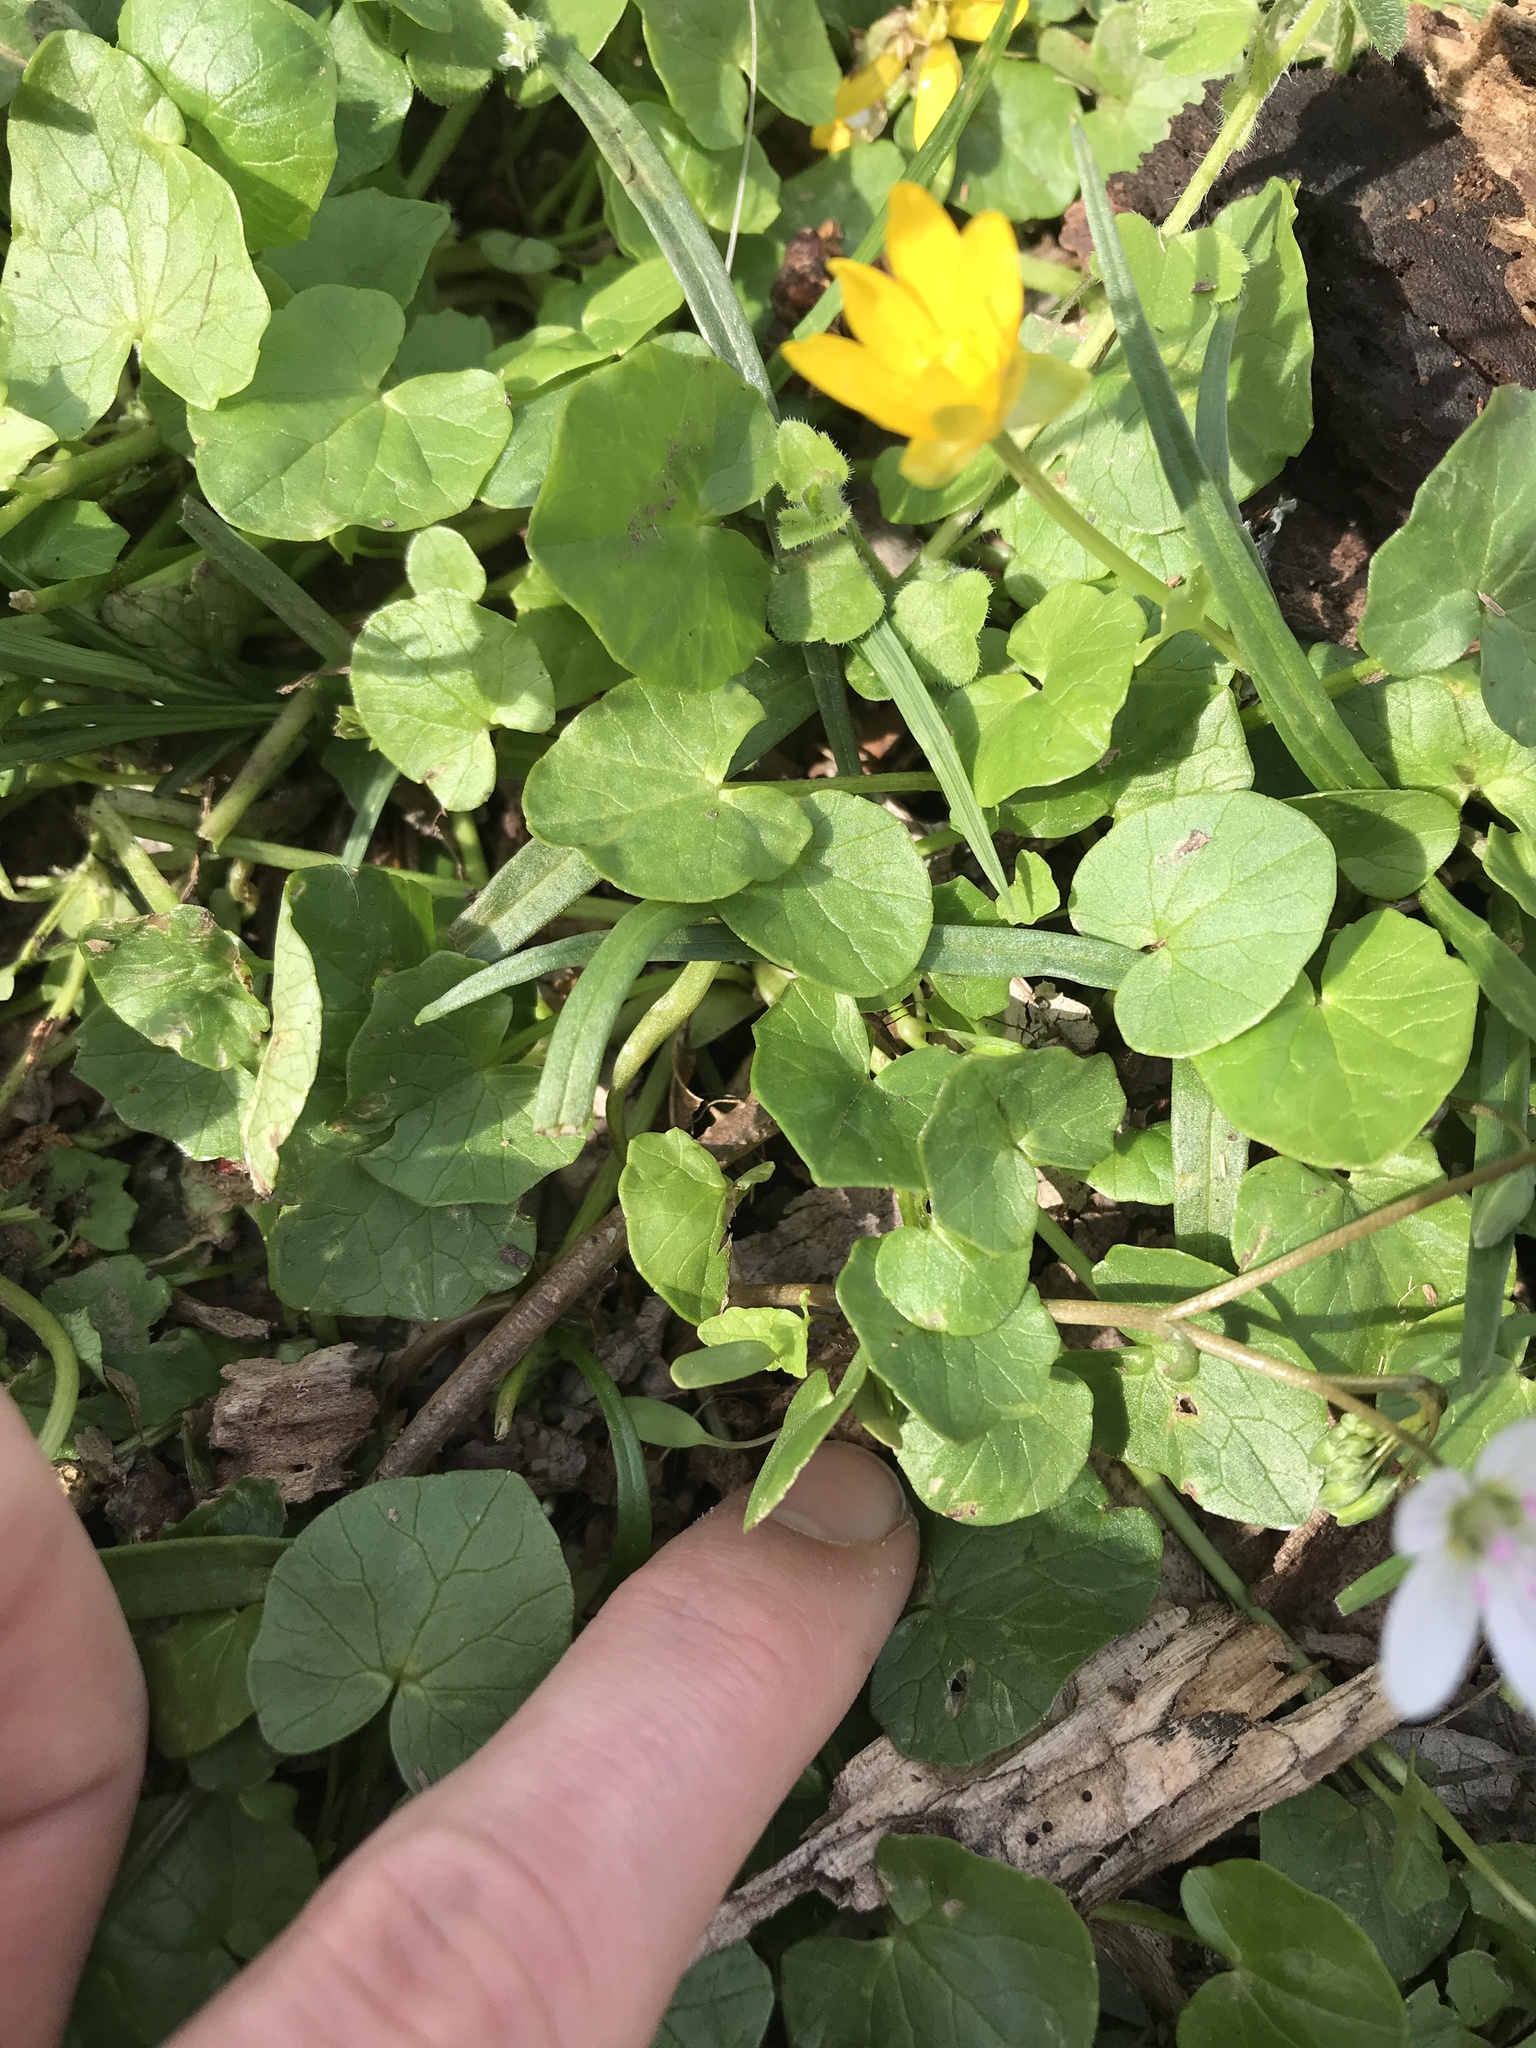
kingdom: Plantae
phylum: Tracheophyta
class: Magnoliopsida
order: Caryophyllales
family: Montiaceae
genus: Claytonia
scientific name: Claytonia virginica
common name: Virginia springbeauty
